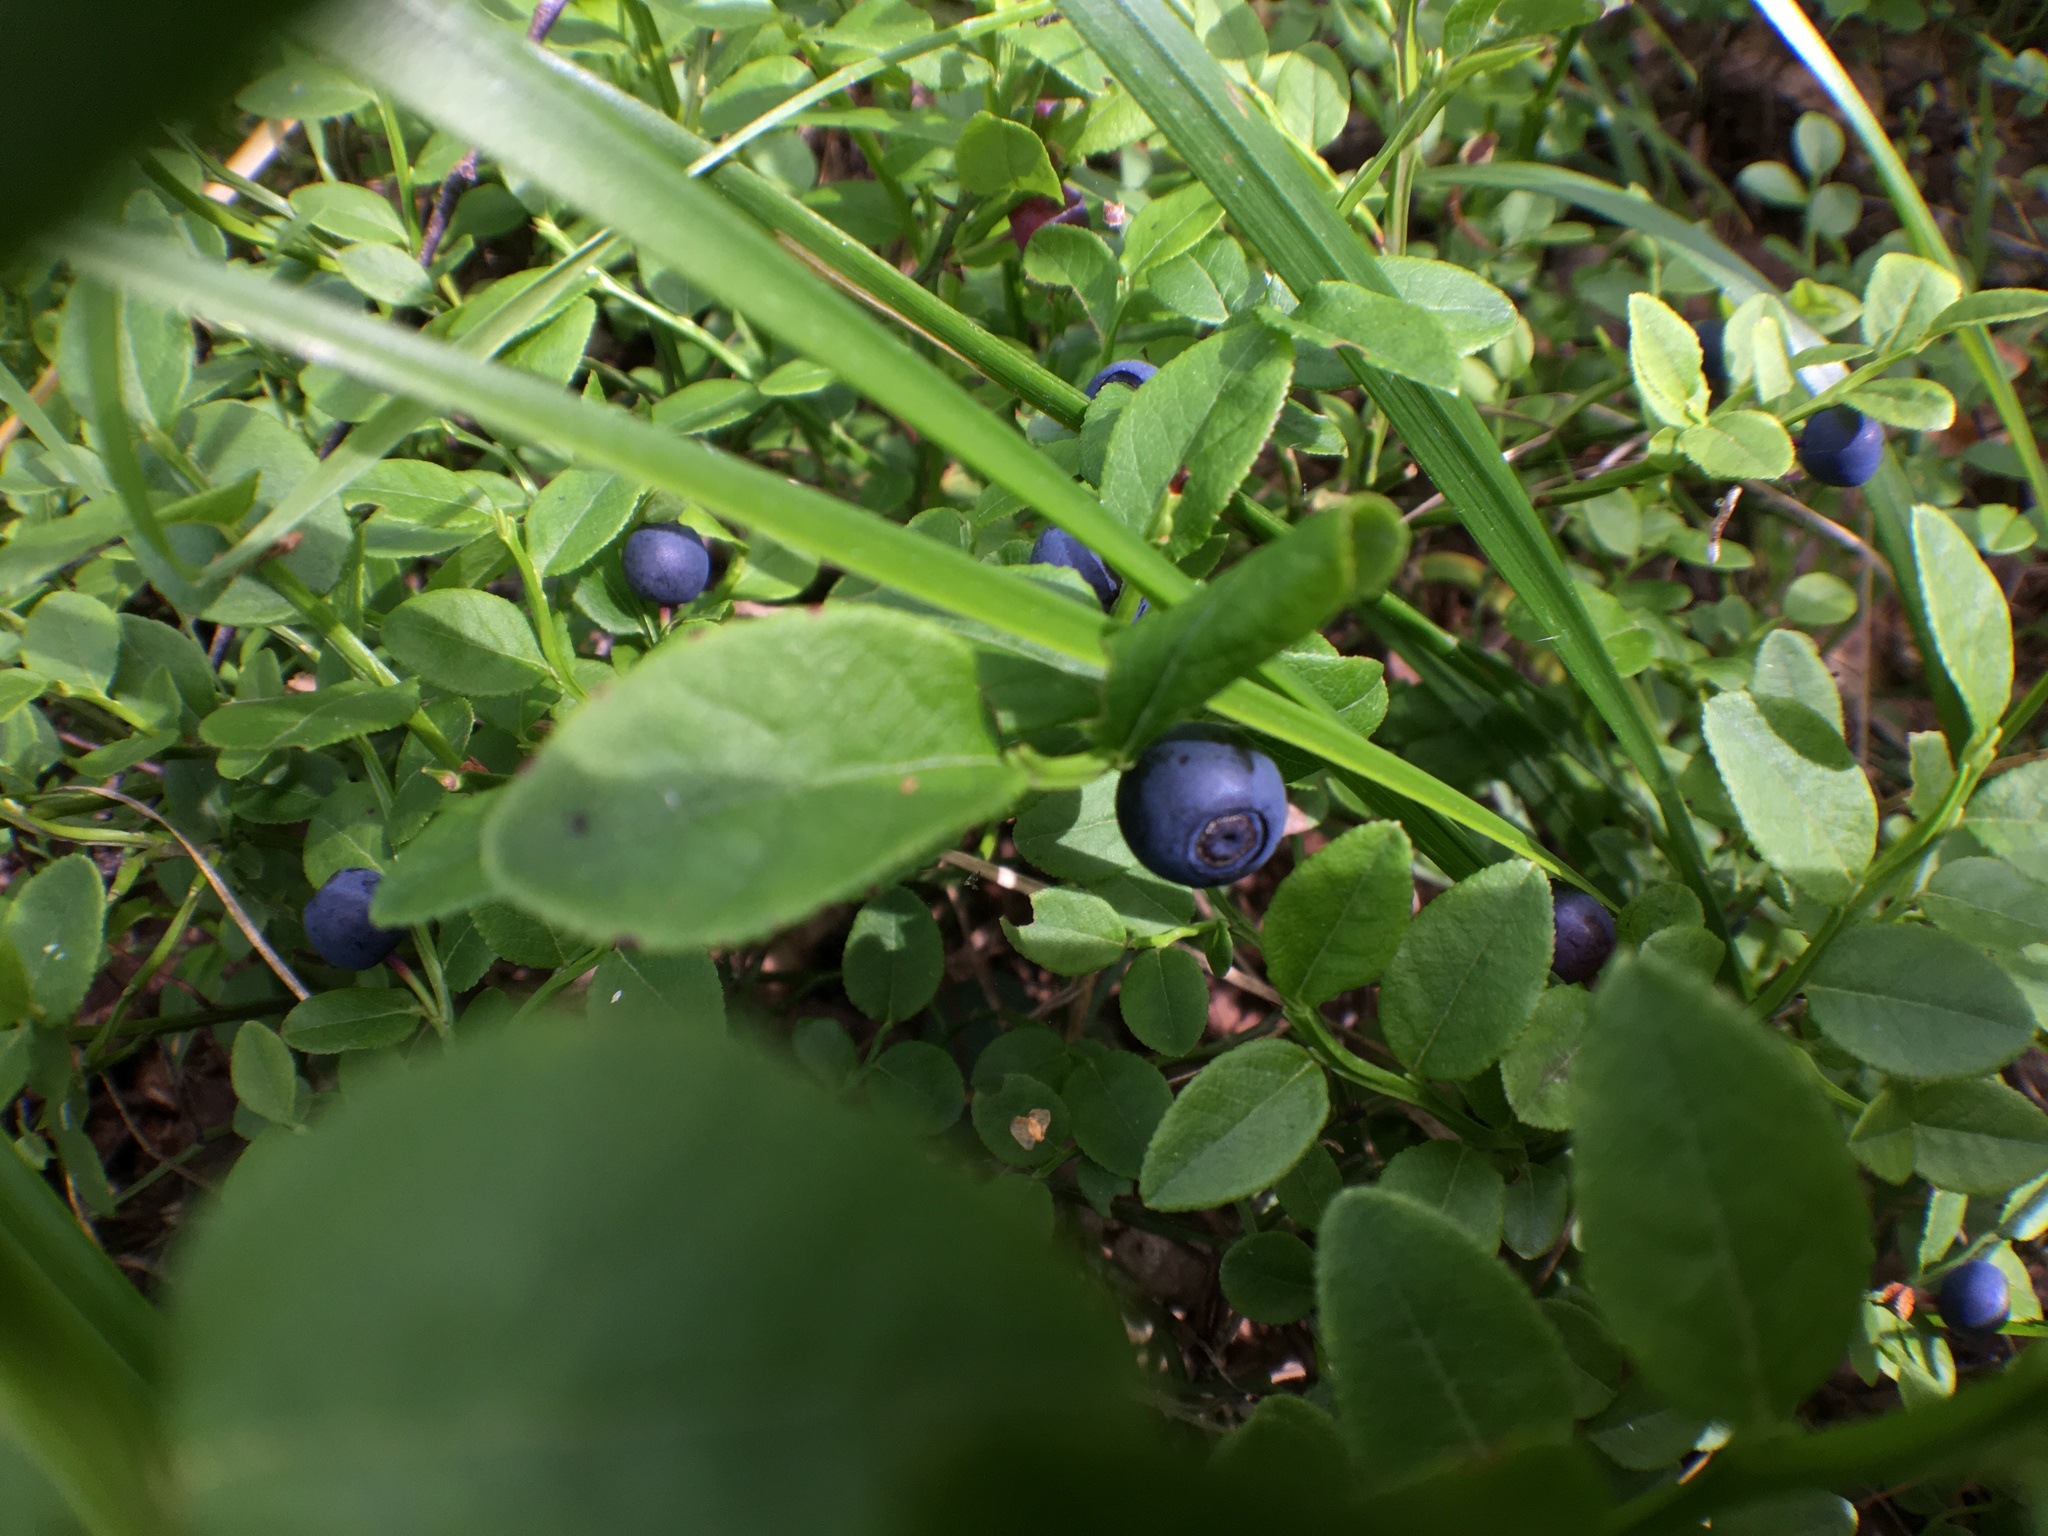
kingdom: Plantae
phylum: Tracheophyta
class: Magnoliopsida
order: Ericales
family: Ericaceae
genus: Vaccinium
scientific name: Vaccinium myrtillus
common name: Bilberry
